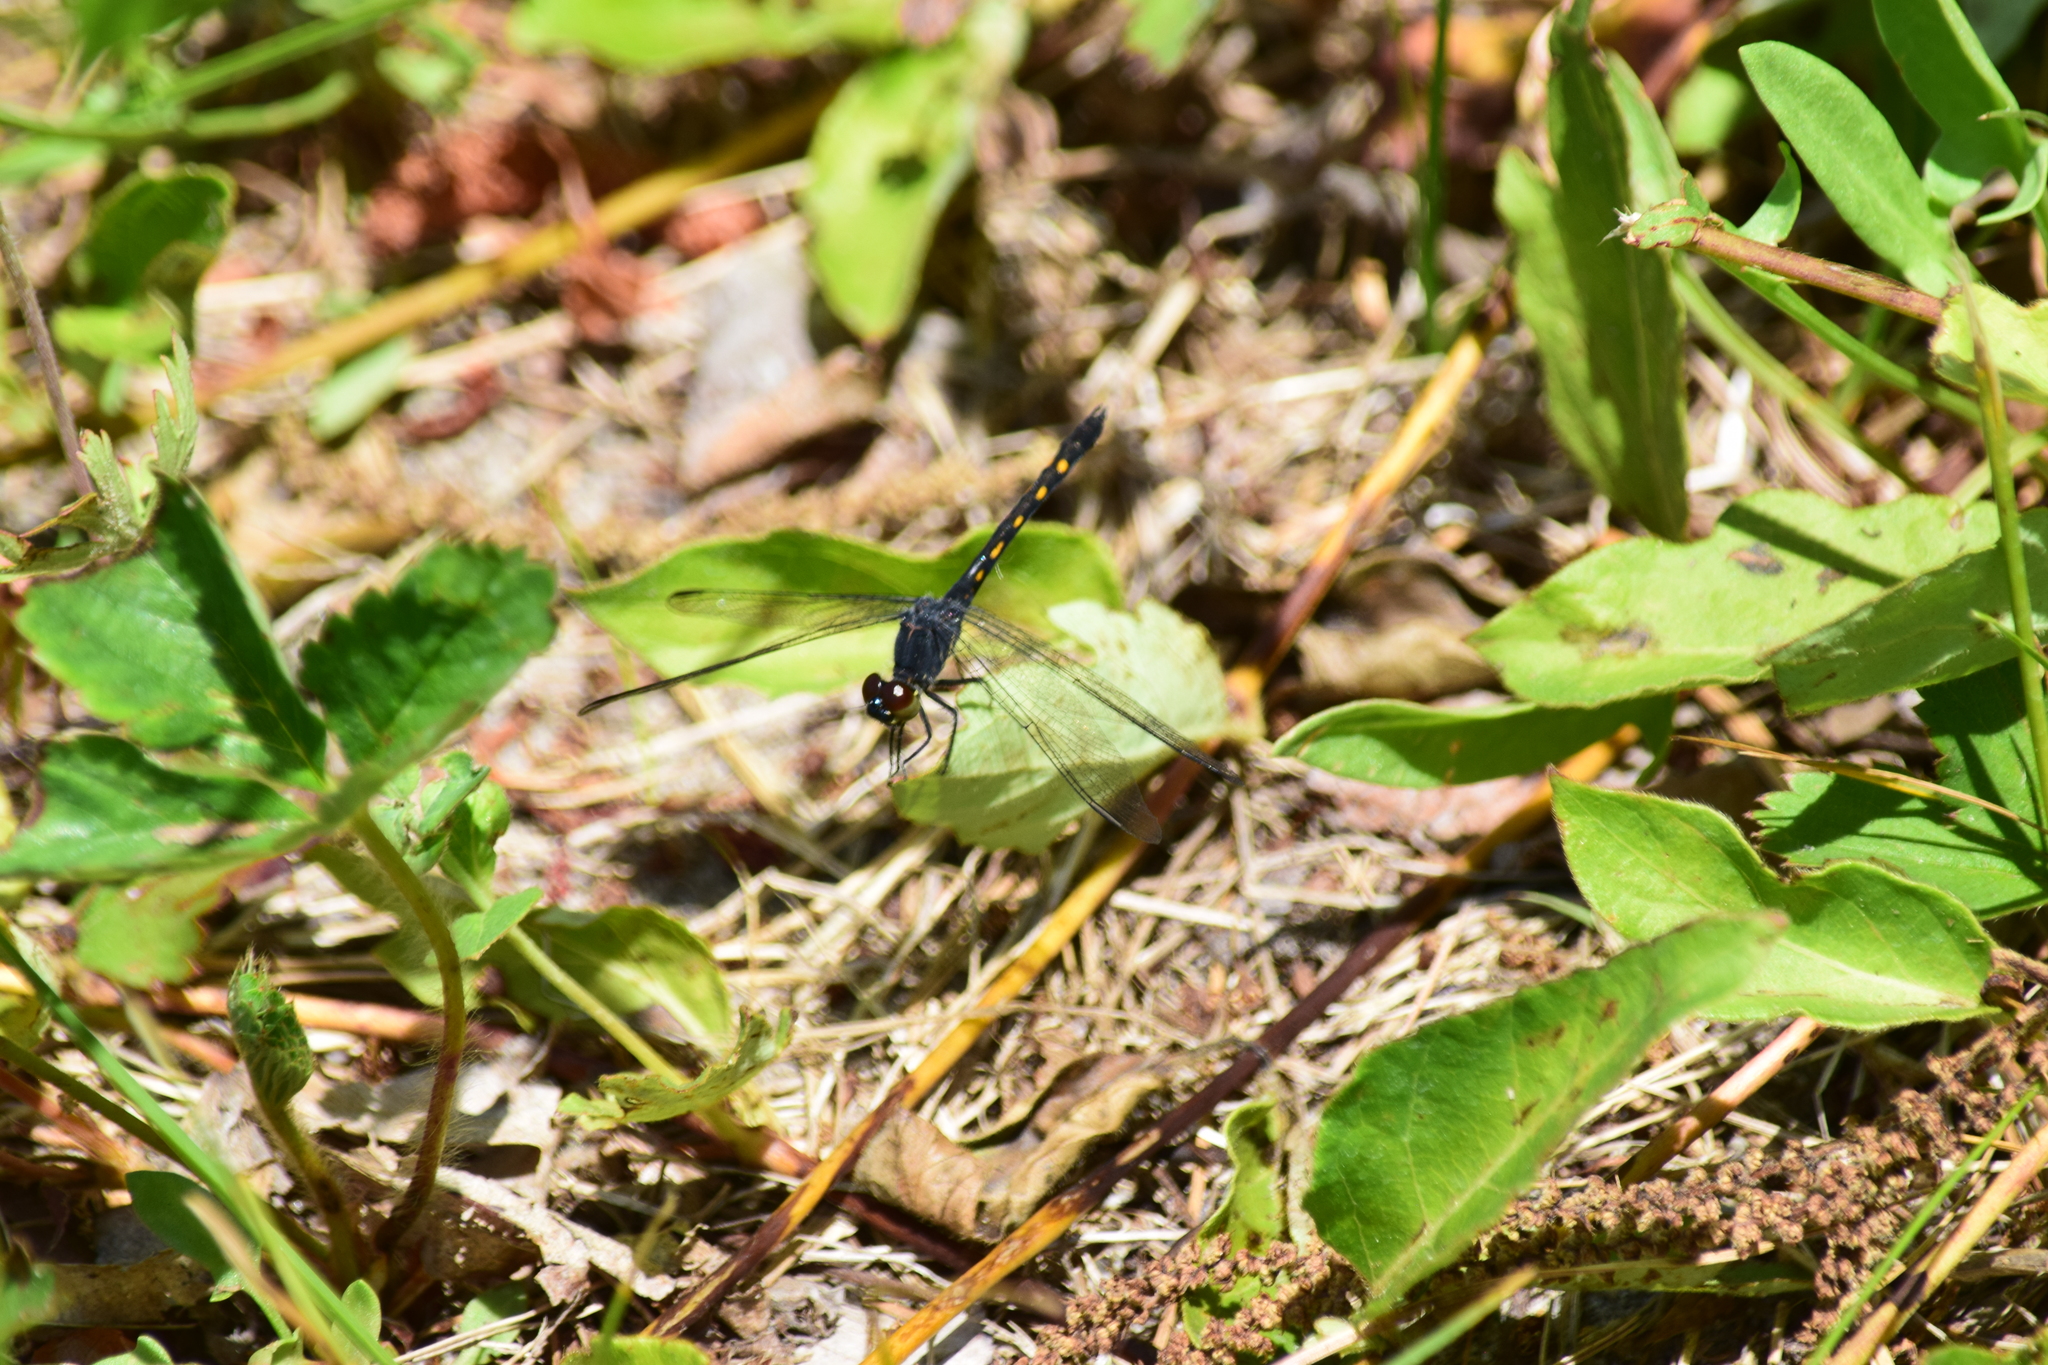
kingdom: Animalia
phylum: Arthropoda
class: Insecta
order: Odonata
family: Libellulidae
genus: Erythrodiplax
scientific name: Erythrodiplax berenice
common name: Seaside dragonlet
